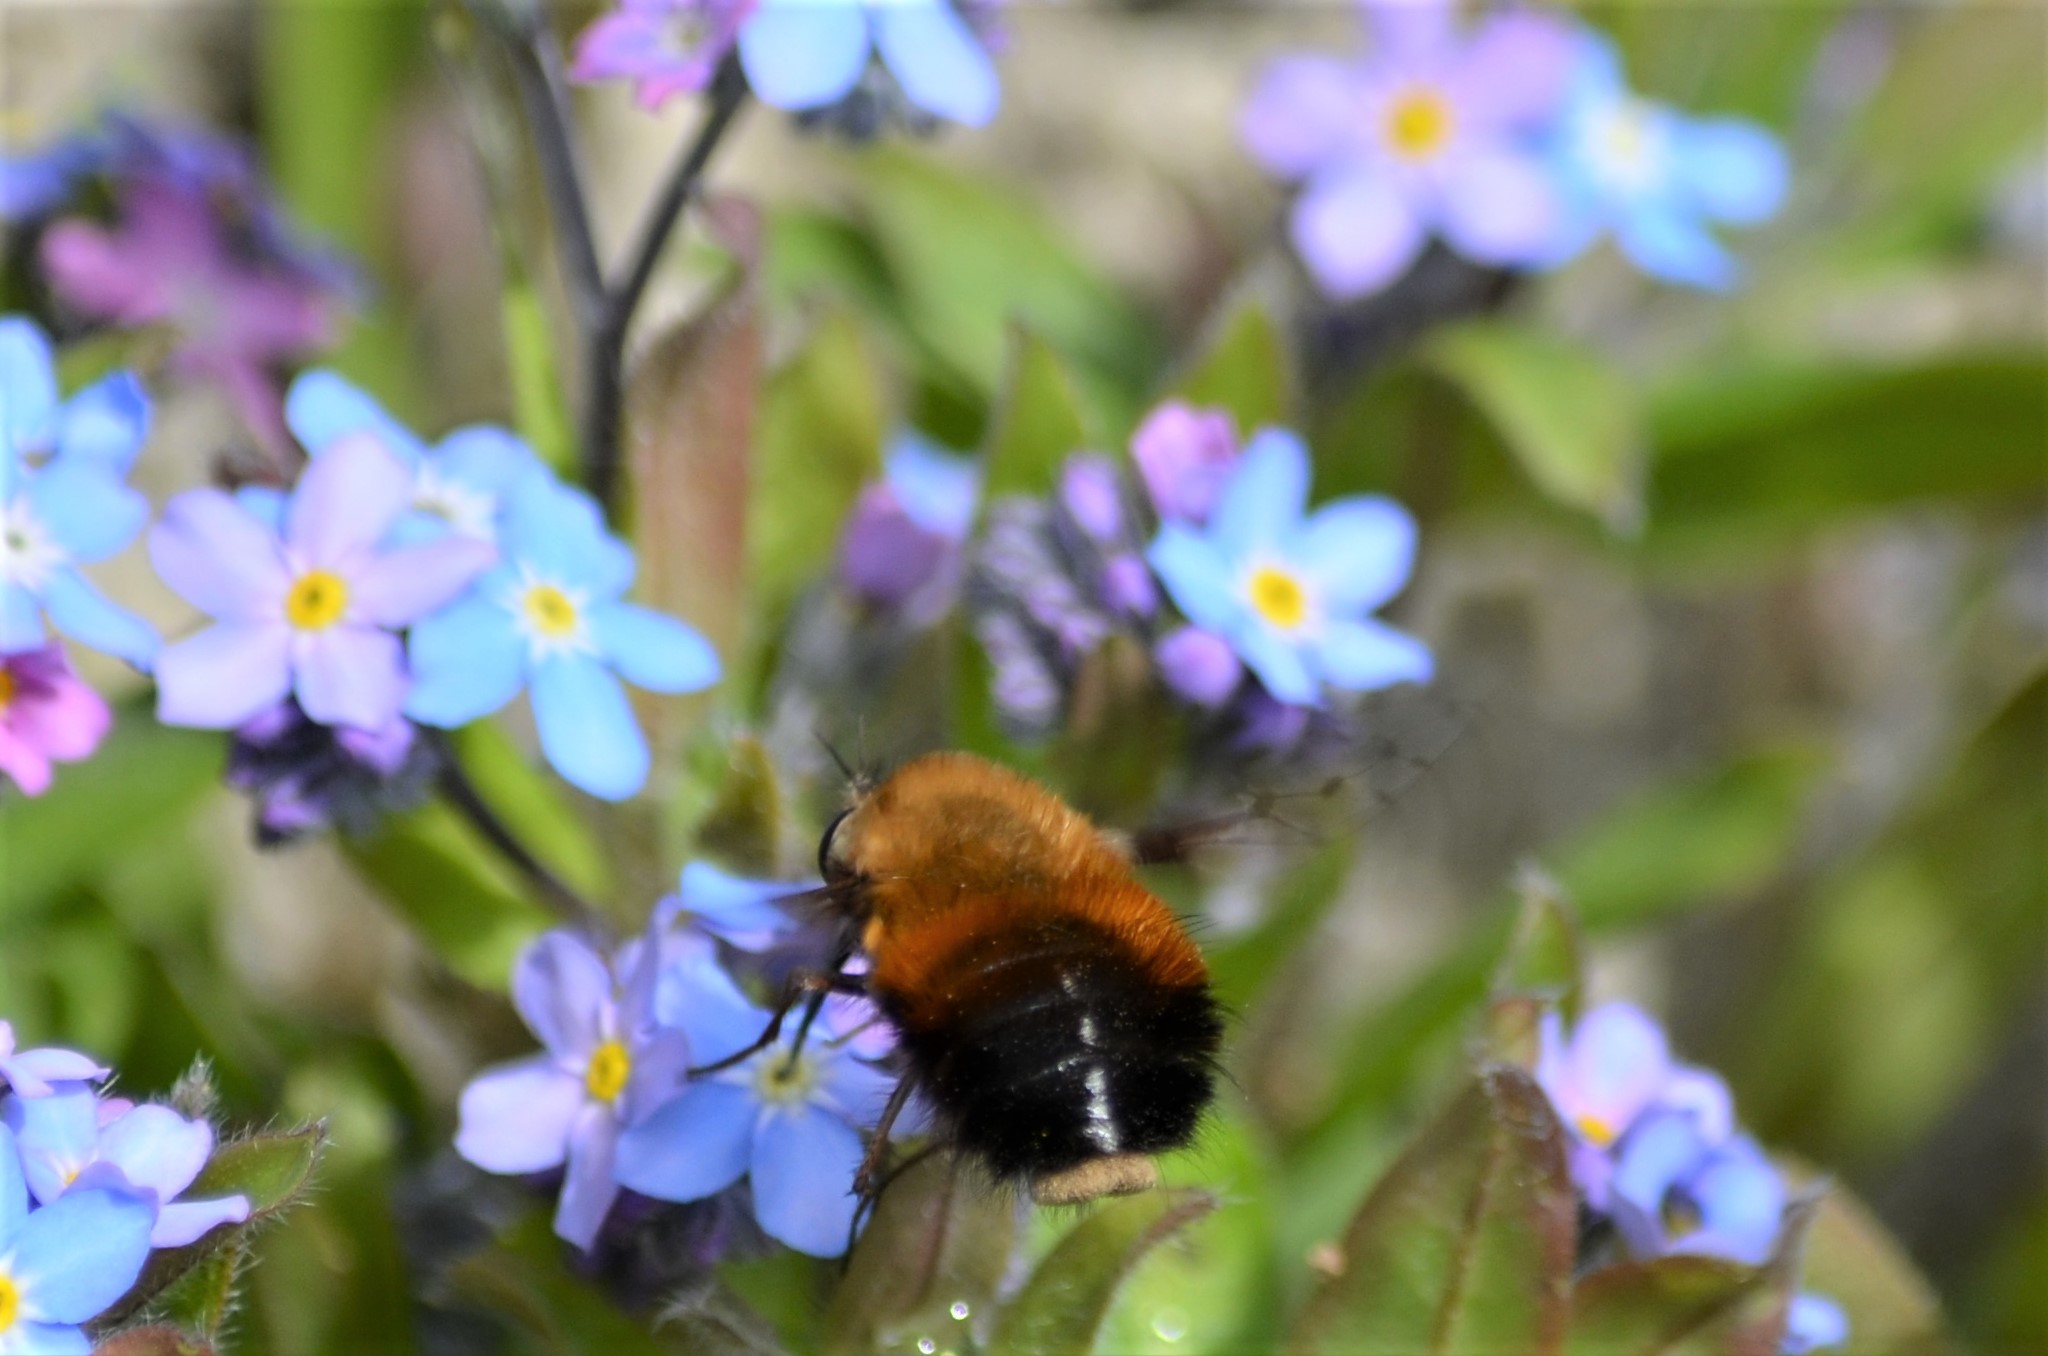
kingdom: Animalia
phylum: Arthropoda
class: Insecta
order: Diptera
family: Bombyliidae
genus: Bombylius
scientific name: Bombylius discolor
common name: Dotted bee-fly
